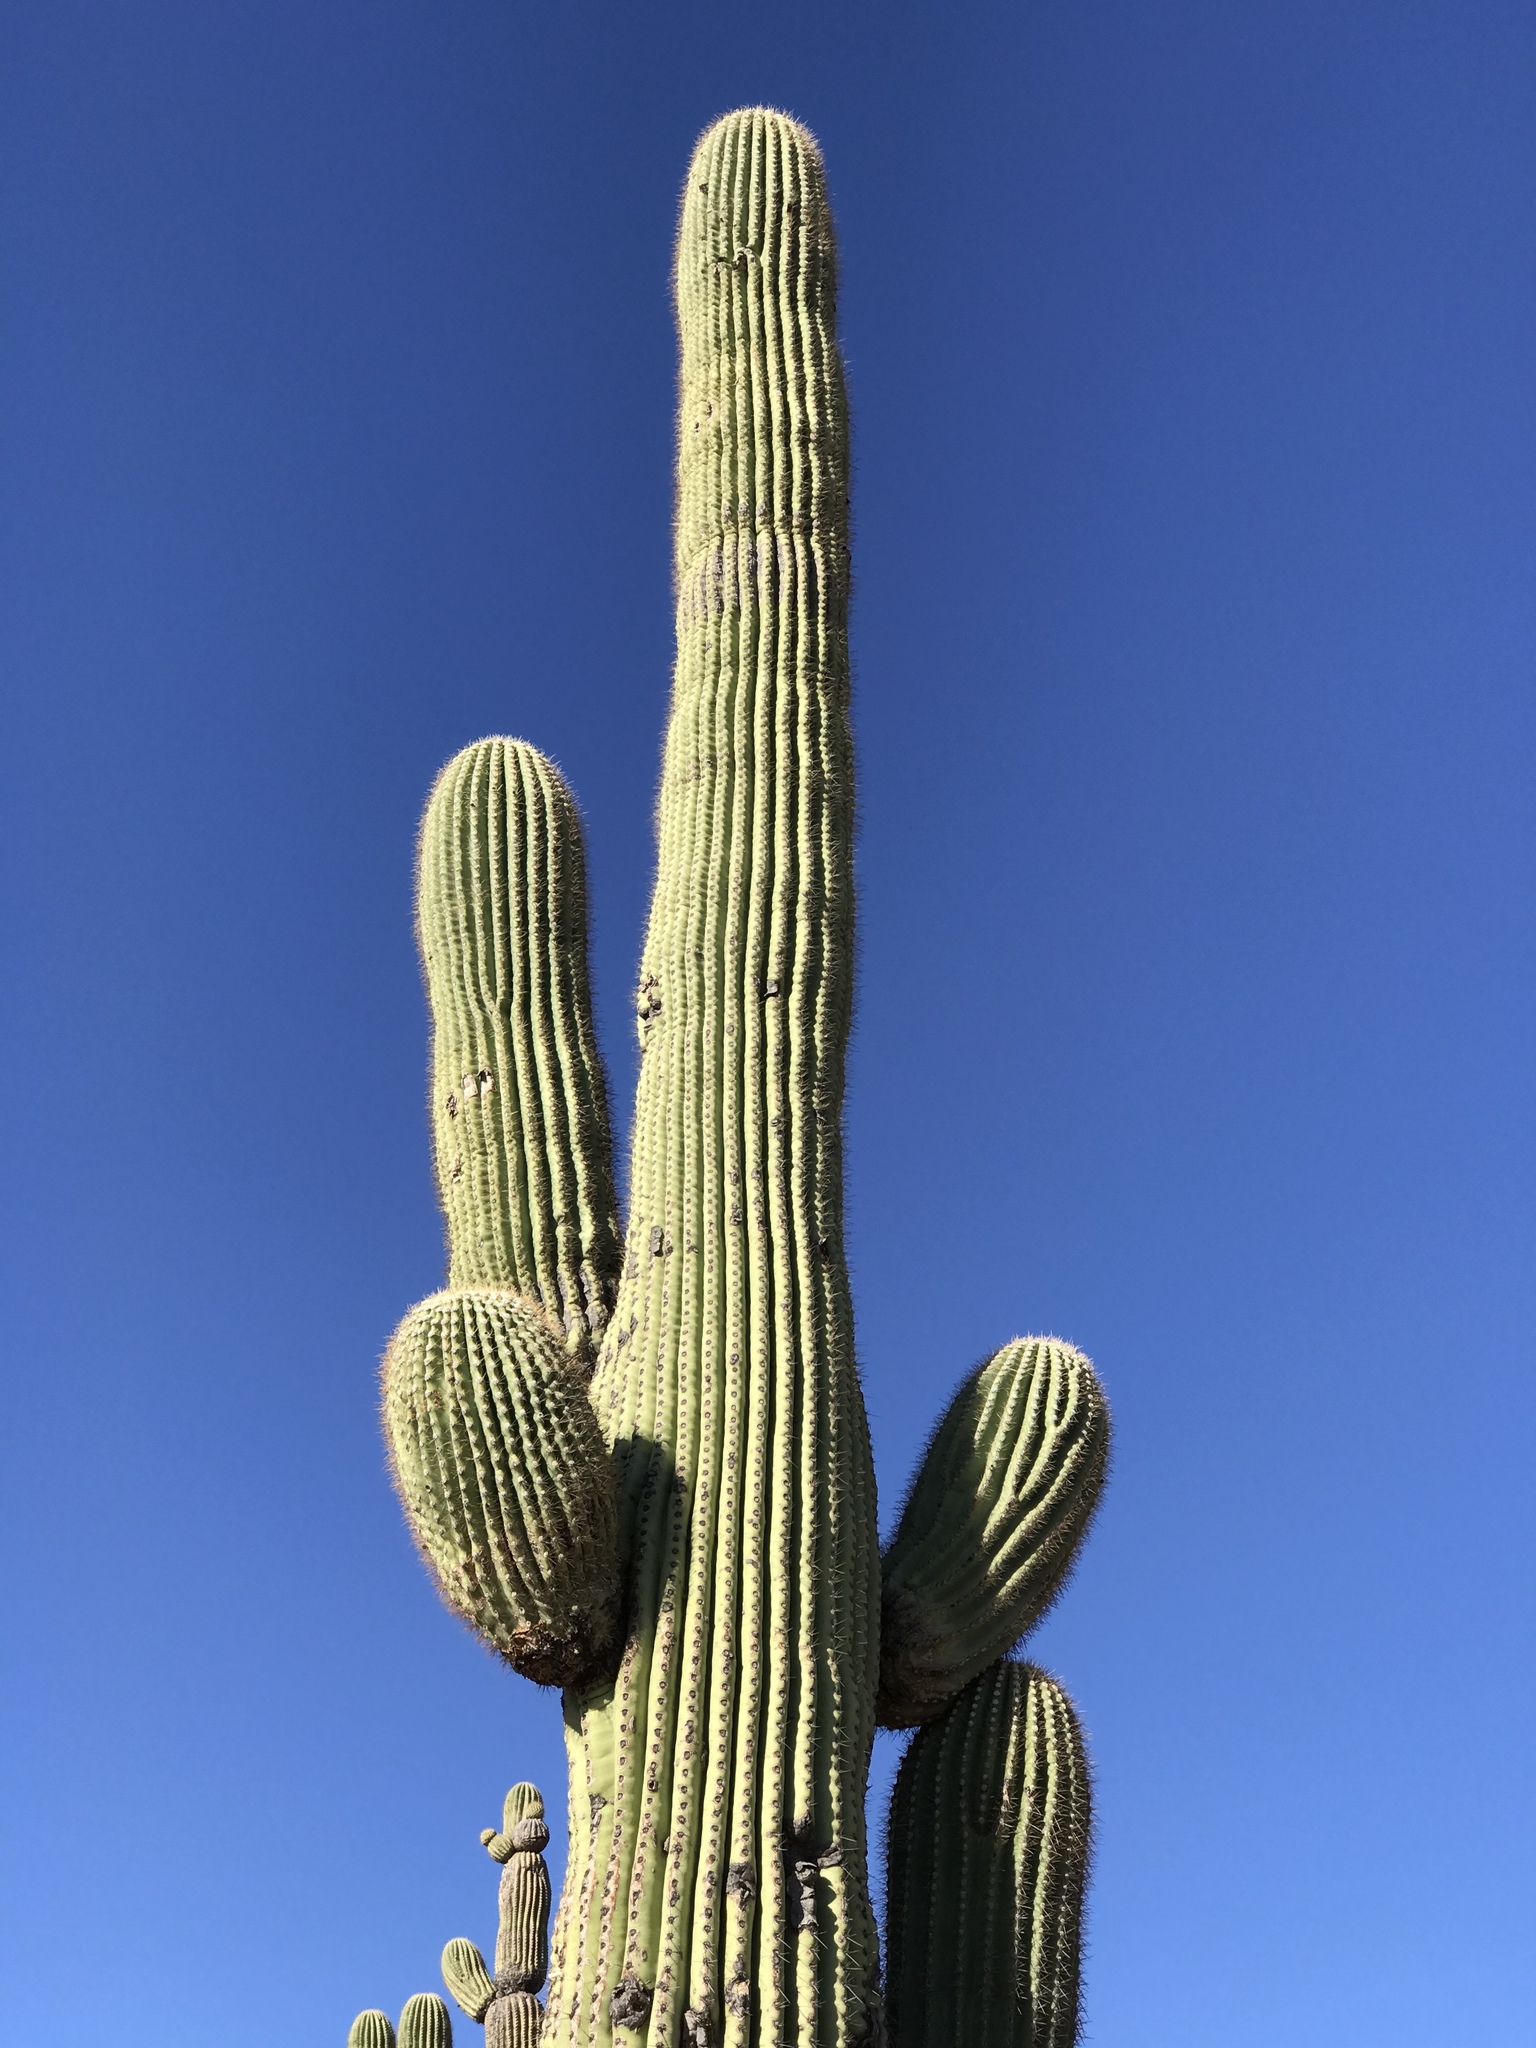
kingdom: Plantae
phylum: Tracheophyta
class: Magnoliopsida
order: Caryophyllales
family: Cactaceae
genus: Carnegiea
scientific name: Carnegiea gigantea
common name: Saguaro
